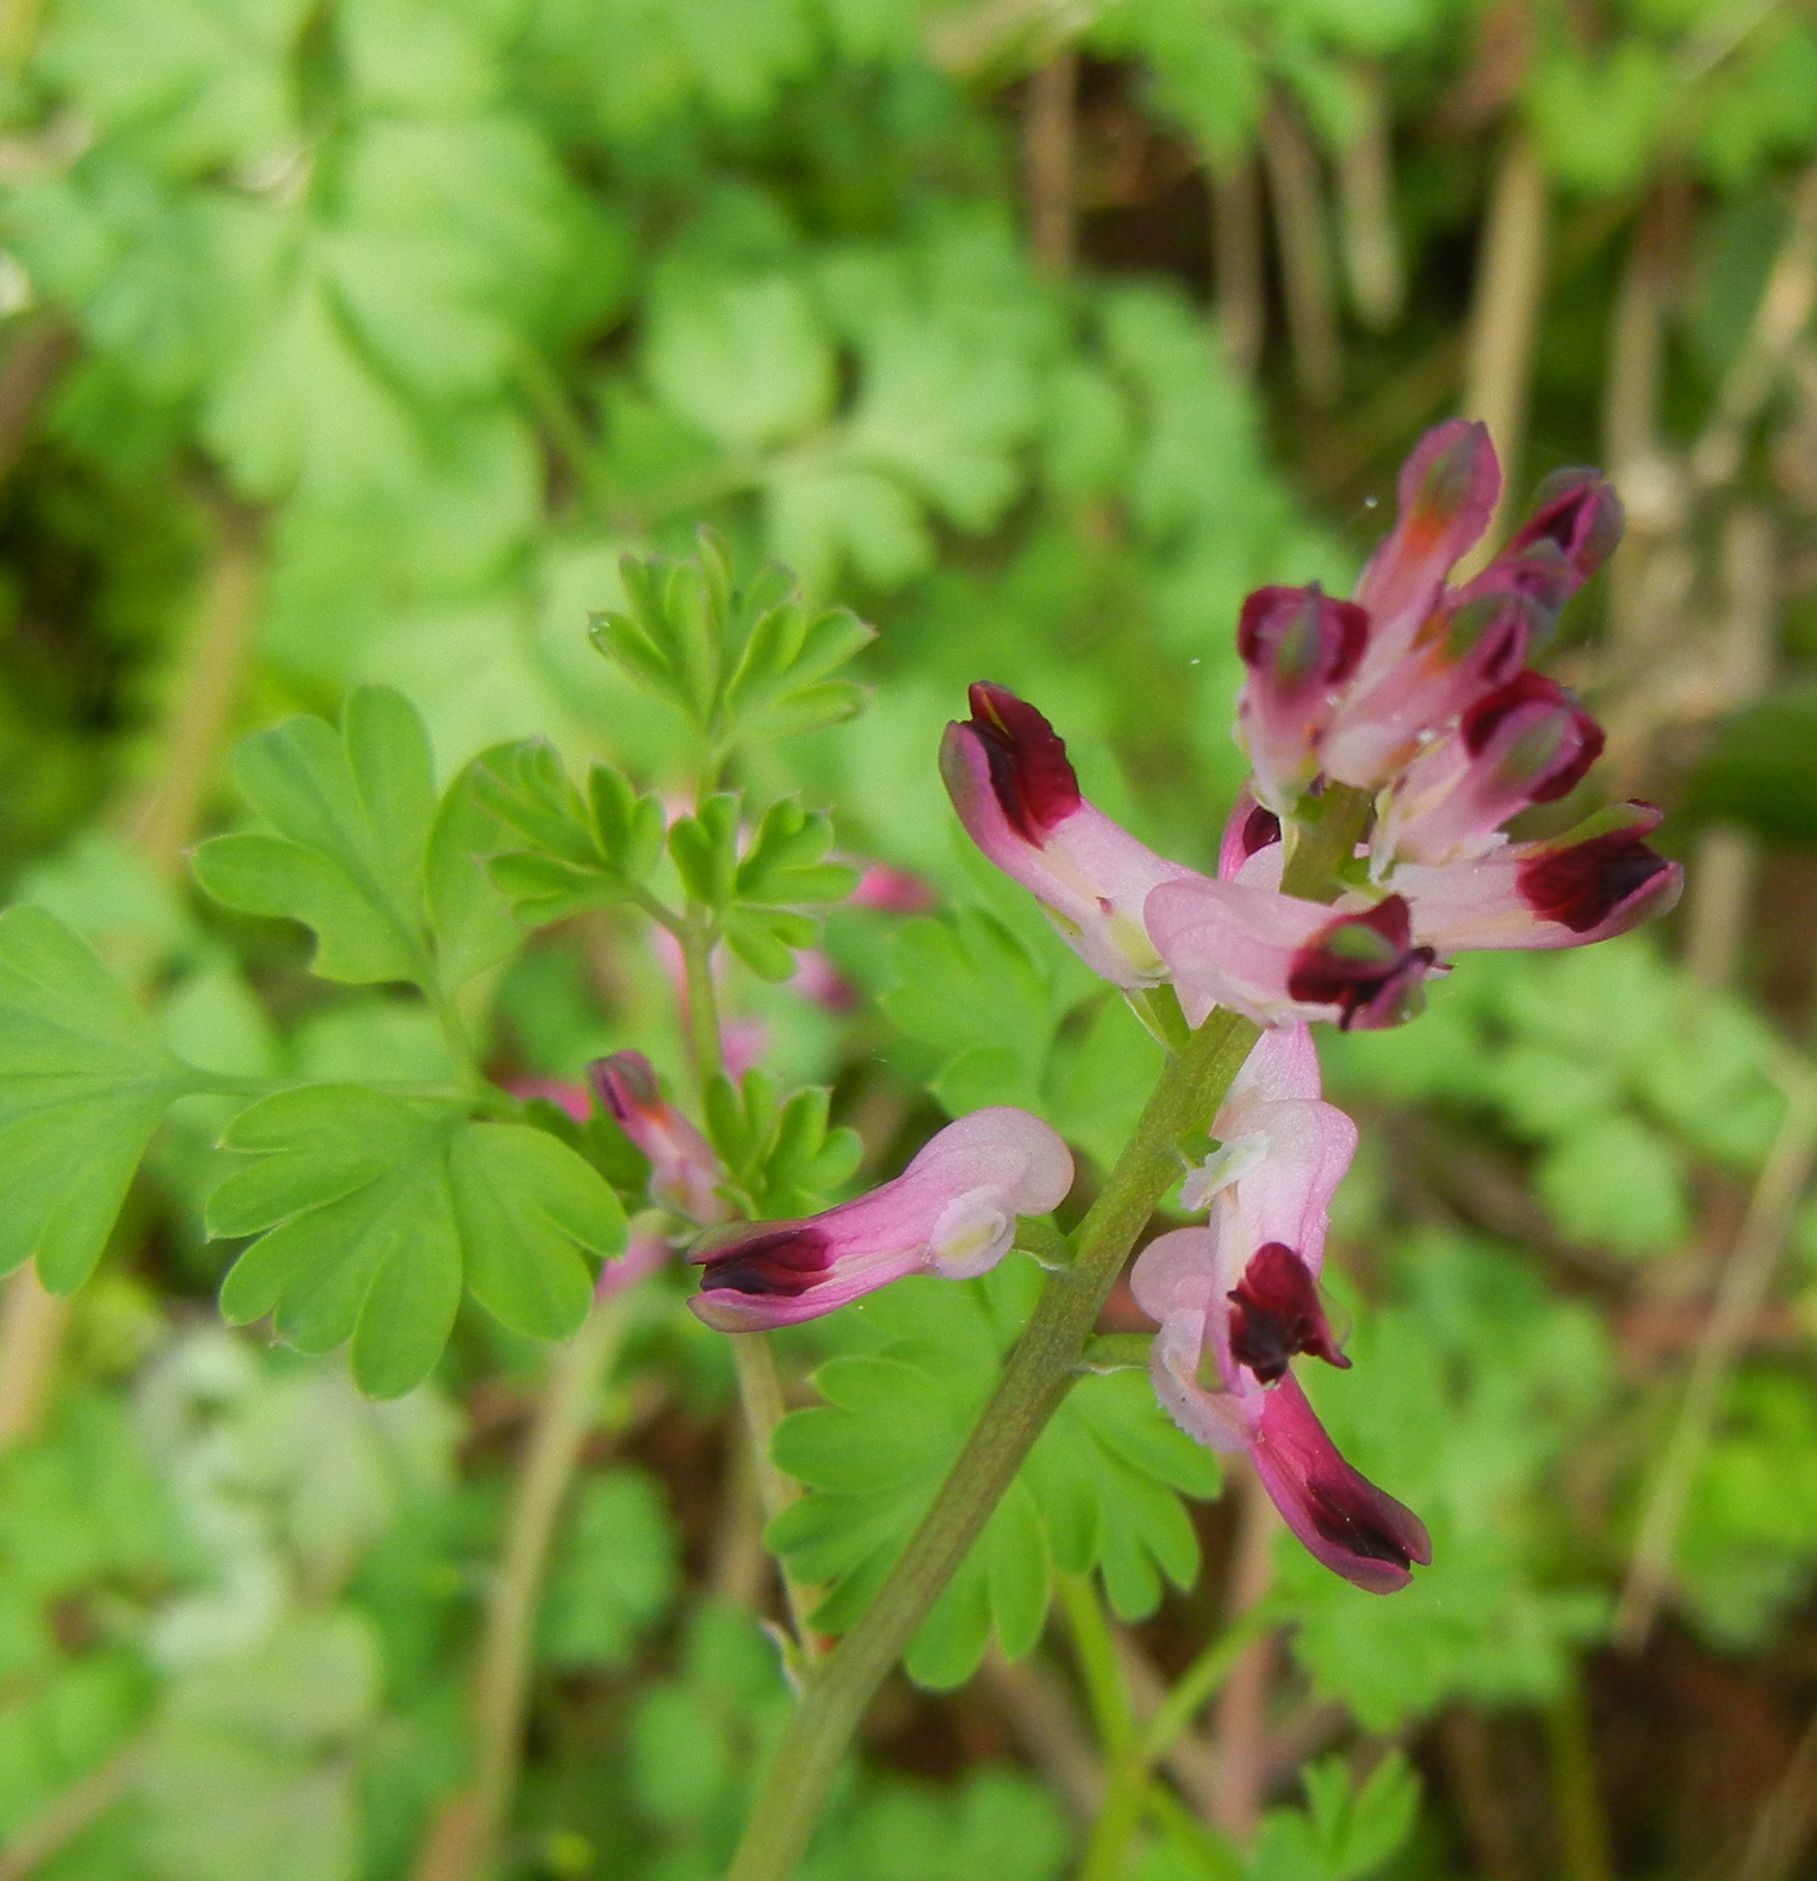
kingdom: Plantae
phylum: Tracheophyta
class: Magnoliopsida
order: Ranunculales
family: Papaveraceae
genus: Fumaria
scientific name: Fumaria muralis
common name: Common ramping-fumitory
